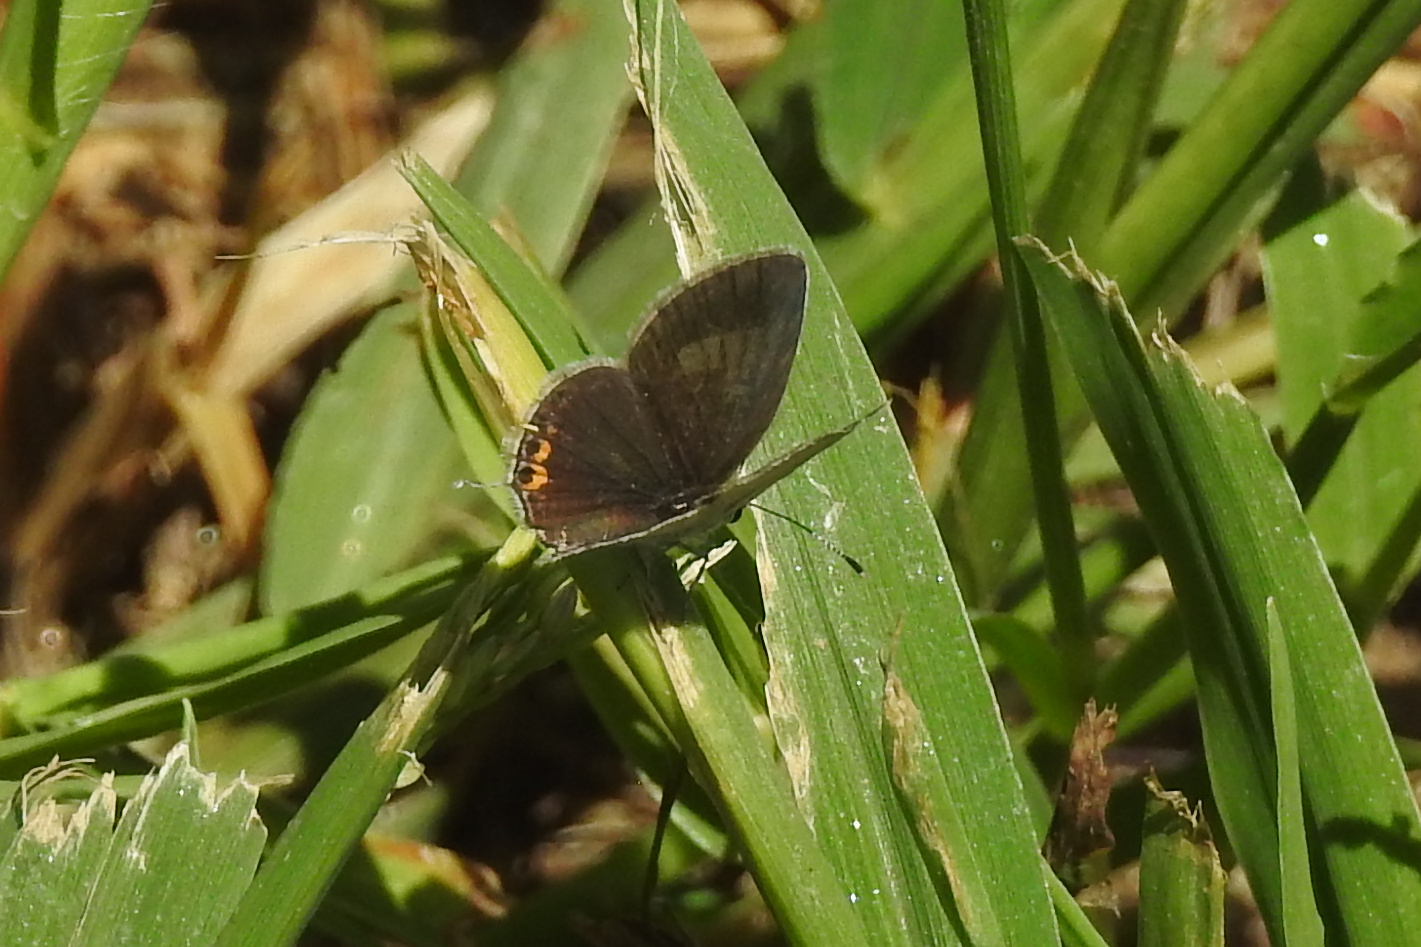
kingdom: Animalia
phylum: Arthropoda
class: Insecta
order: Lepidoptera
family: Lycaenidae
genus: Elkalyce
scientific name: Elkalyce comyntas
